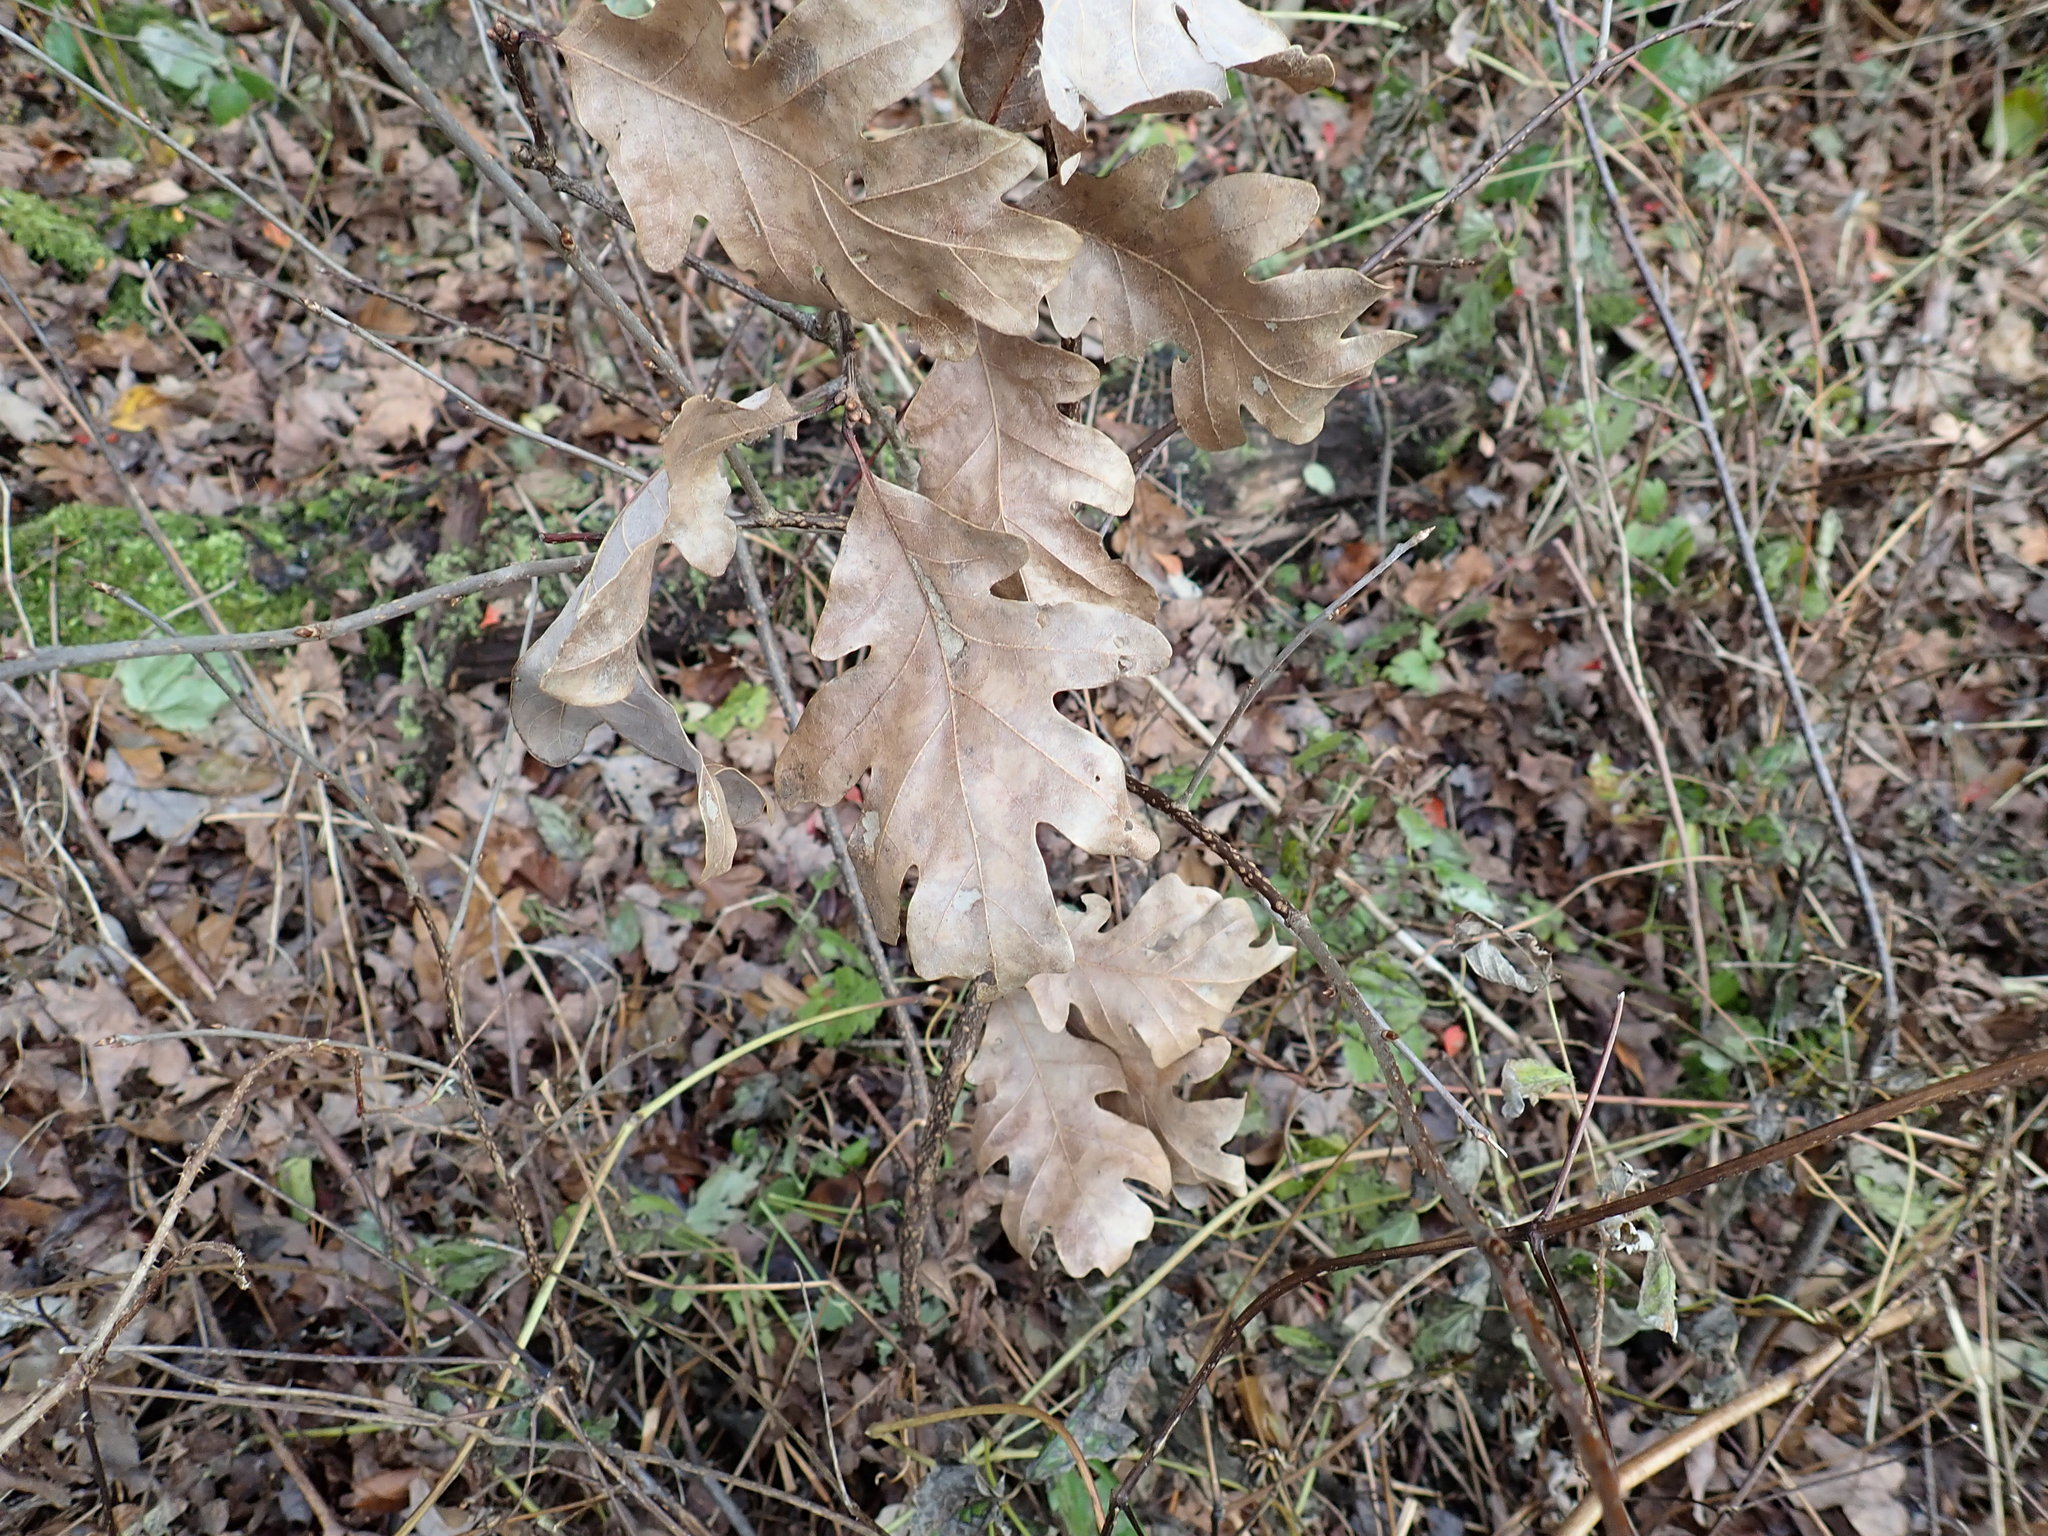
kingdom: Plantae
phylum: Tracheophyta
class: Magnoliopsida
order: Fagales
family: Fagaceae
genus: Quercus
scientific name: Quercus alba
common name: White oak
